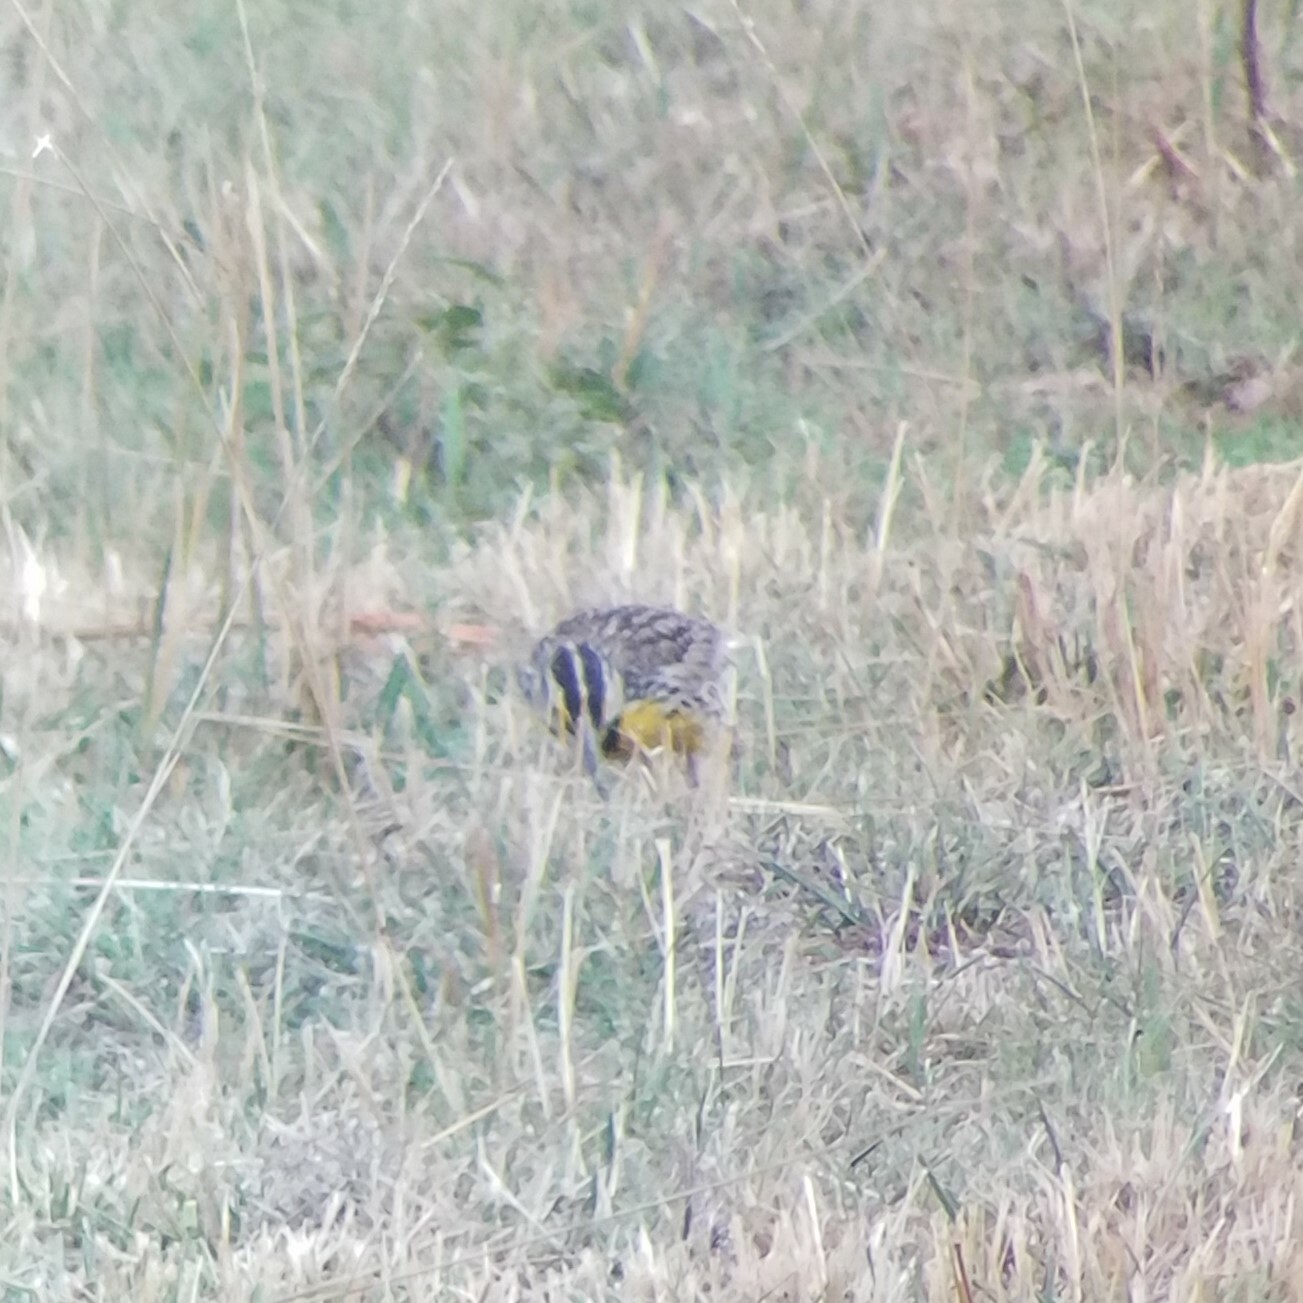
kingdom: Animalia
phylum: Chordata
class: Aves
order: Passeriformes
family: Icteridae
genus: Sturnella
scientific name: Sturnella magna
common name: Eastern meadowlark
